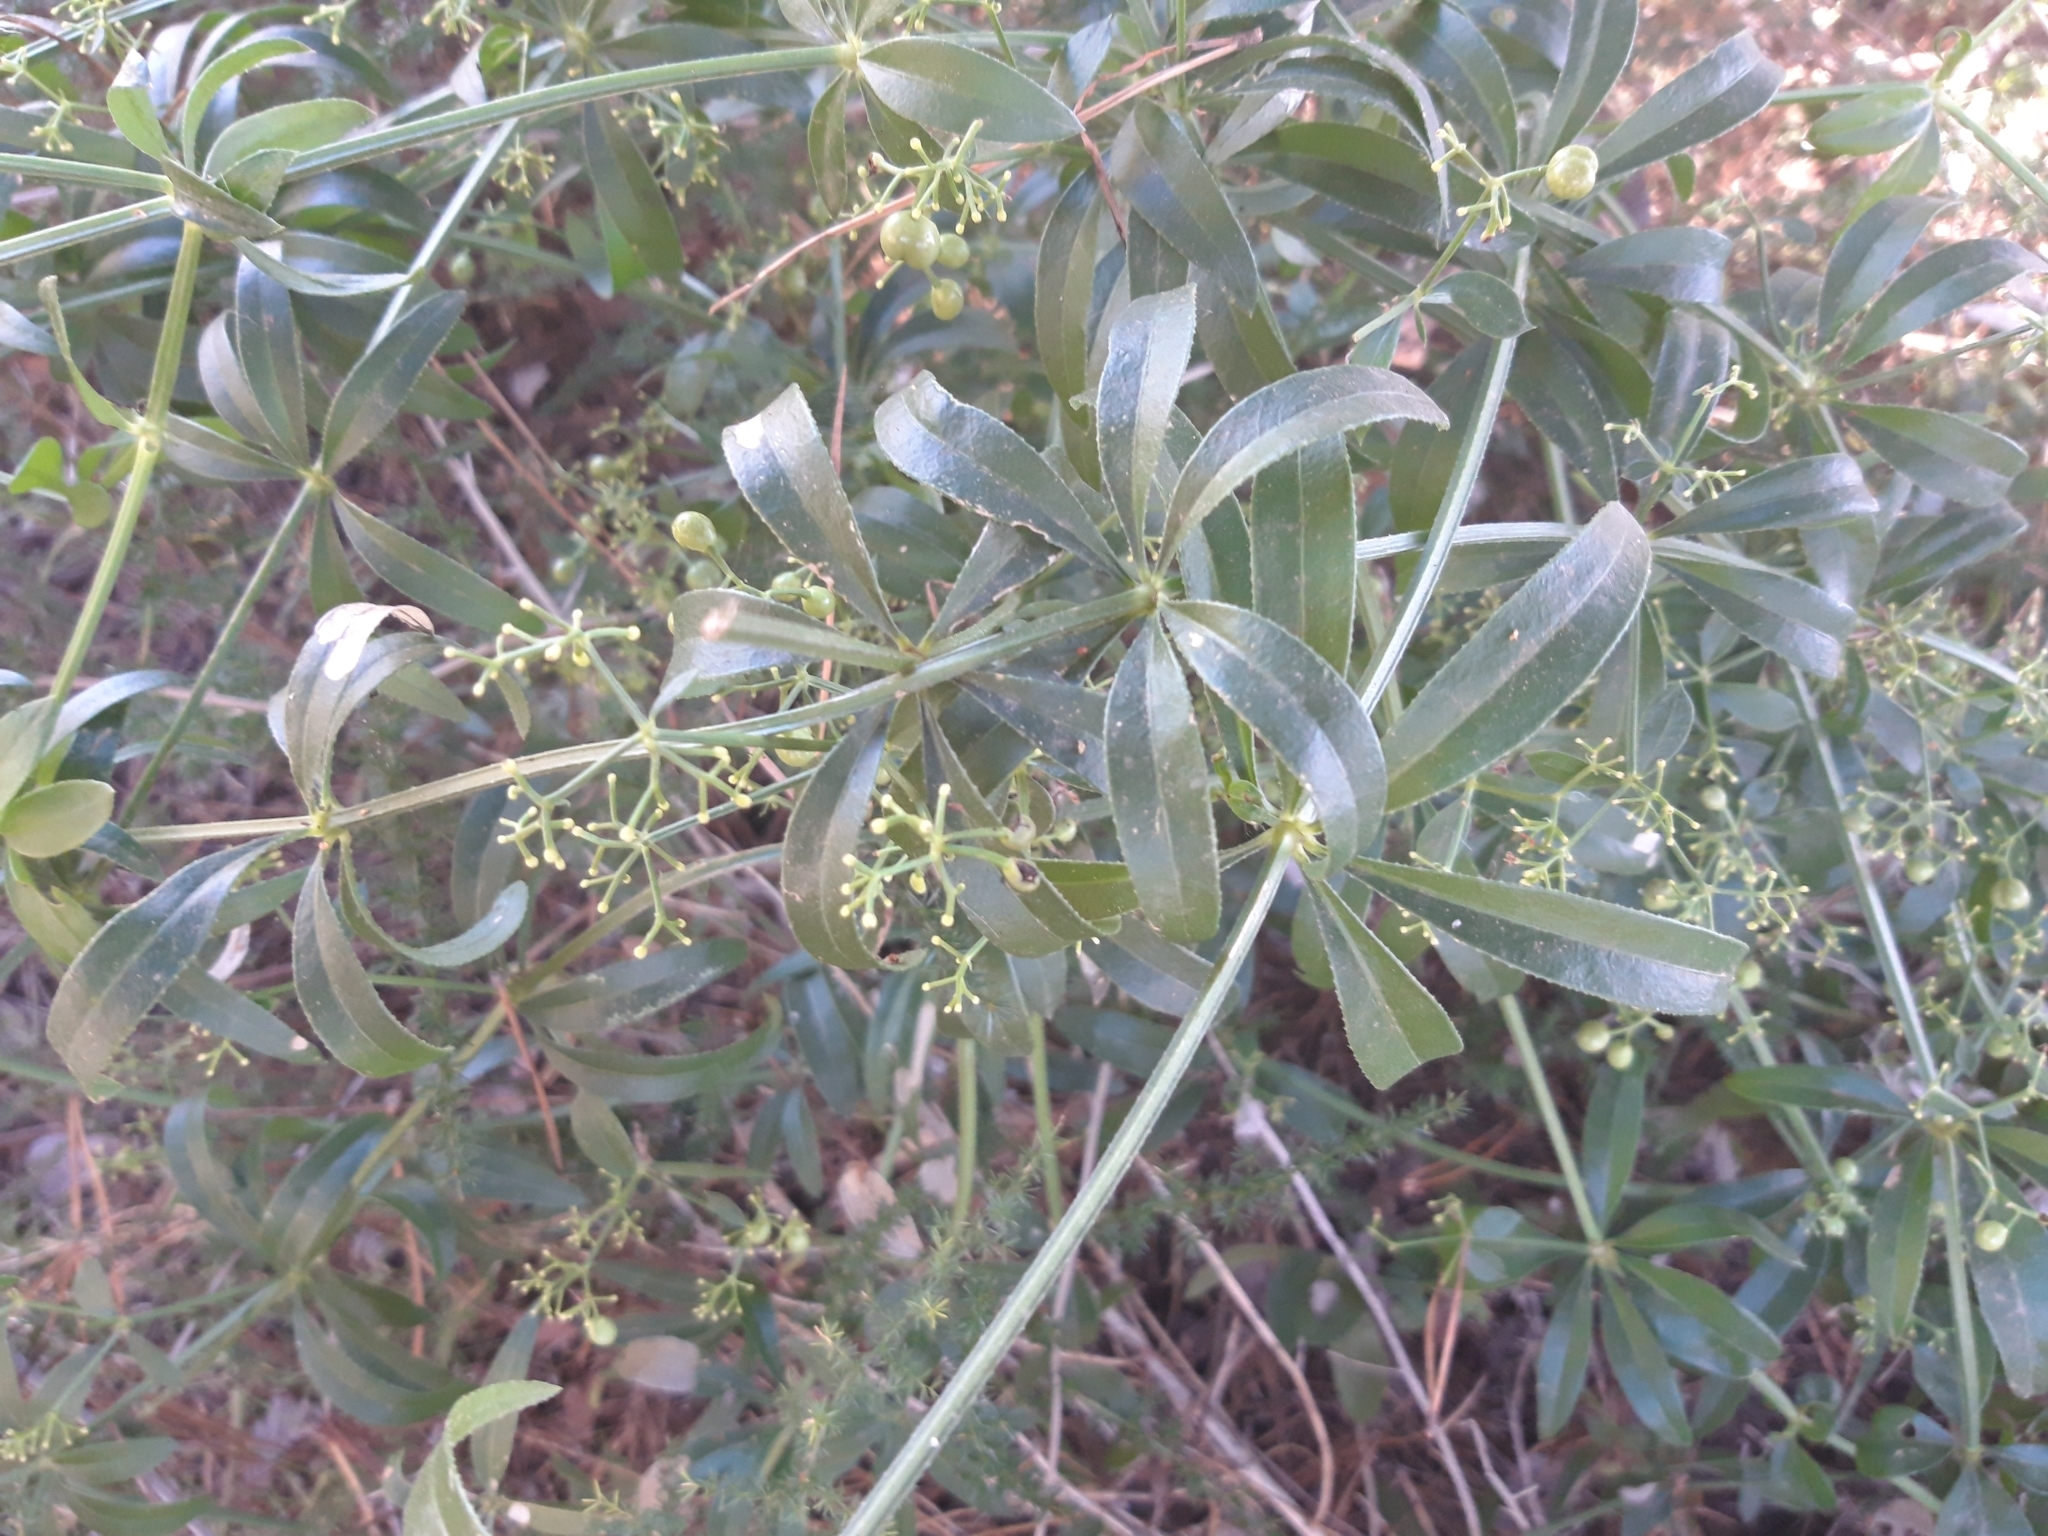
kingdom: Plantae
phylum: Tracheophyta
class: Magnoliopsida
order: Gentianales
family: Rubiaceae
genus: Rubia
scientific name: Rubia peregrina
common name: Wild madder
